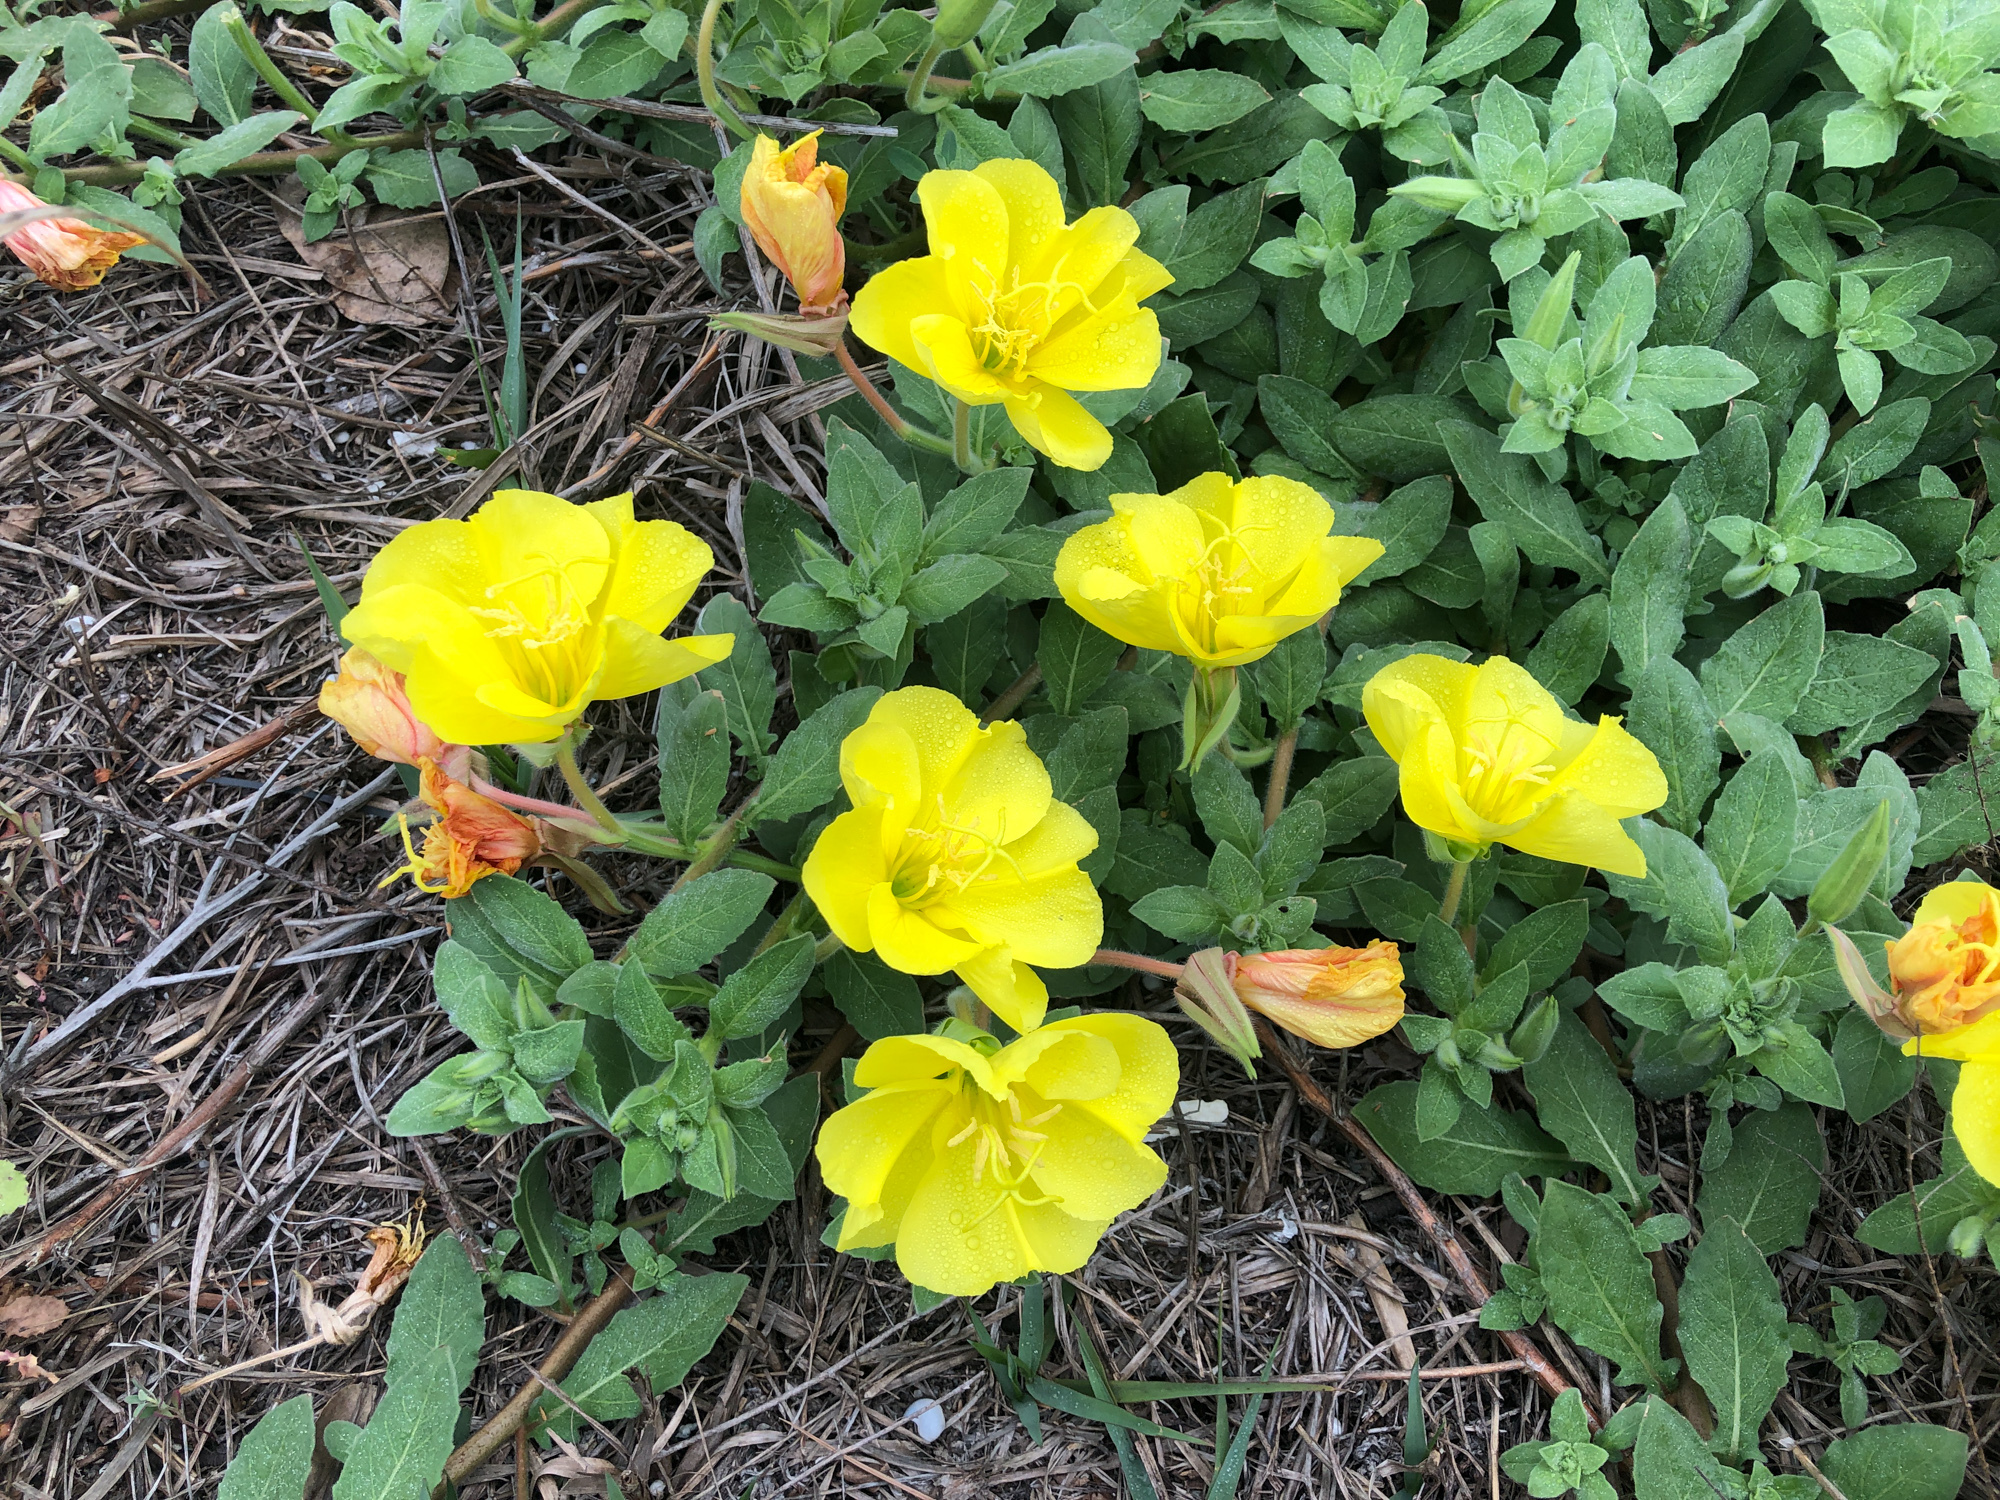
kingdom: Plantae
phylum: Tracheophyta
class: Magnoliopsida
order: Myrtales
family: Onagraceae
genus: Oenothera
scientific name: Oenothera drummondii
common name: Beach evening-primrose
